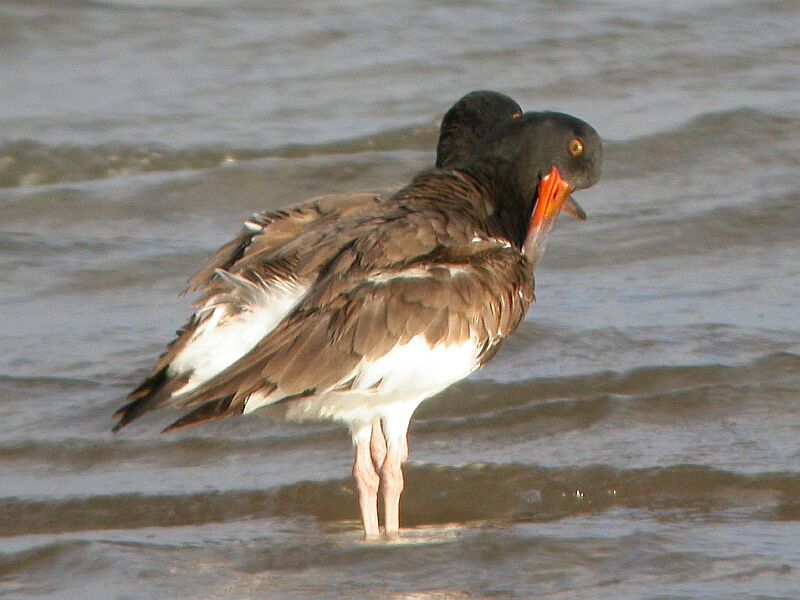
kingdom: Animalia
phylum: Chordata
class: Aves
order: Charadriiformes
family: Haematopodidae
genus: Haematopus
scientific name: Haematopus palliatus
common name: American oystercatcher
